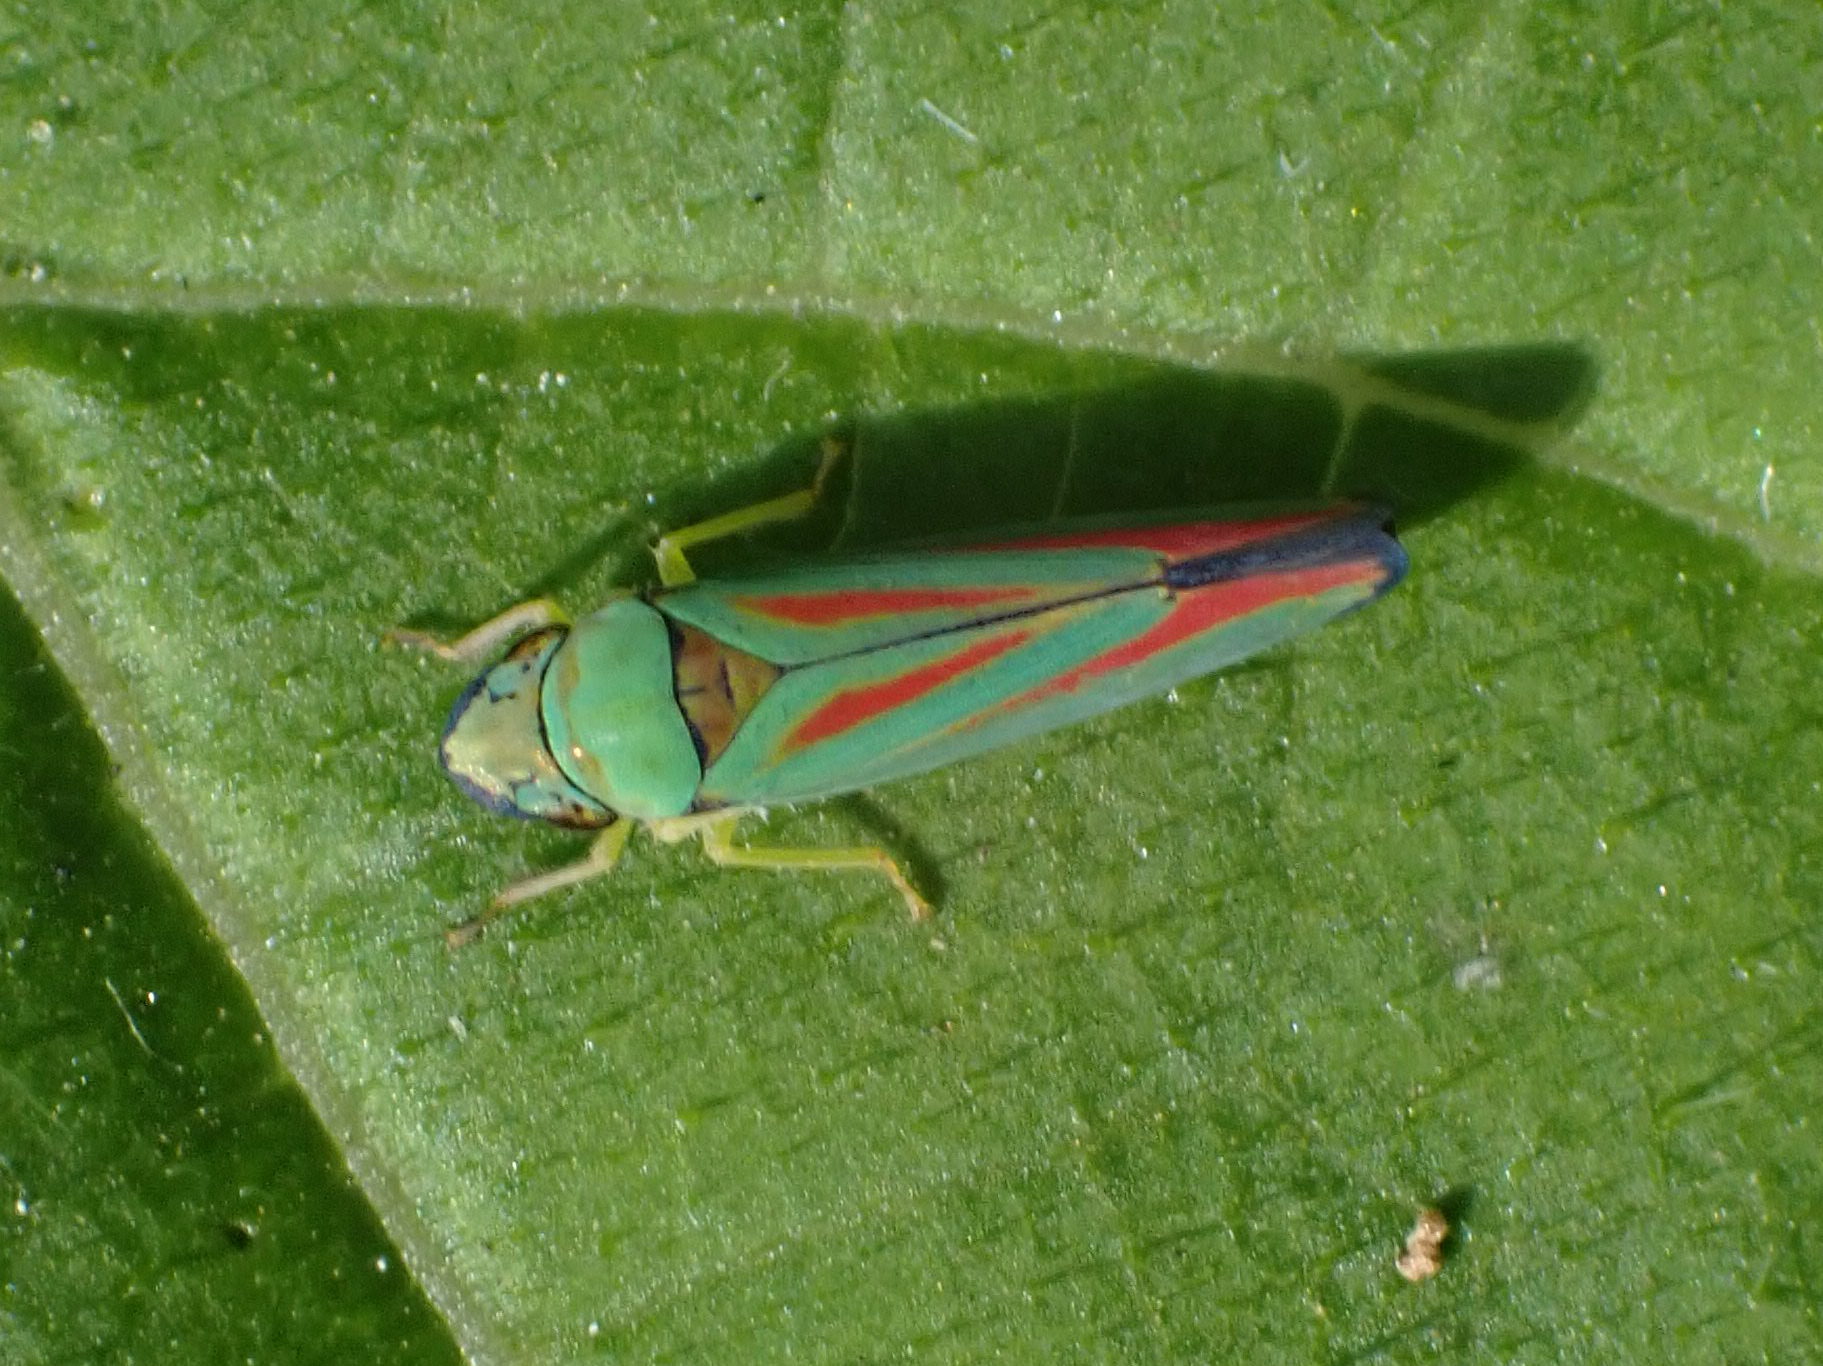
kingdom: Animalia
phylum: Arthropoda
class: Insecta
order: Hemiptera
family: Cicadellidae
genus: Graphocephala
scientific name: Graphocephala fennahi
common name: Rhododendron leafhopper
